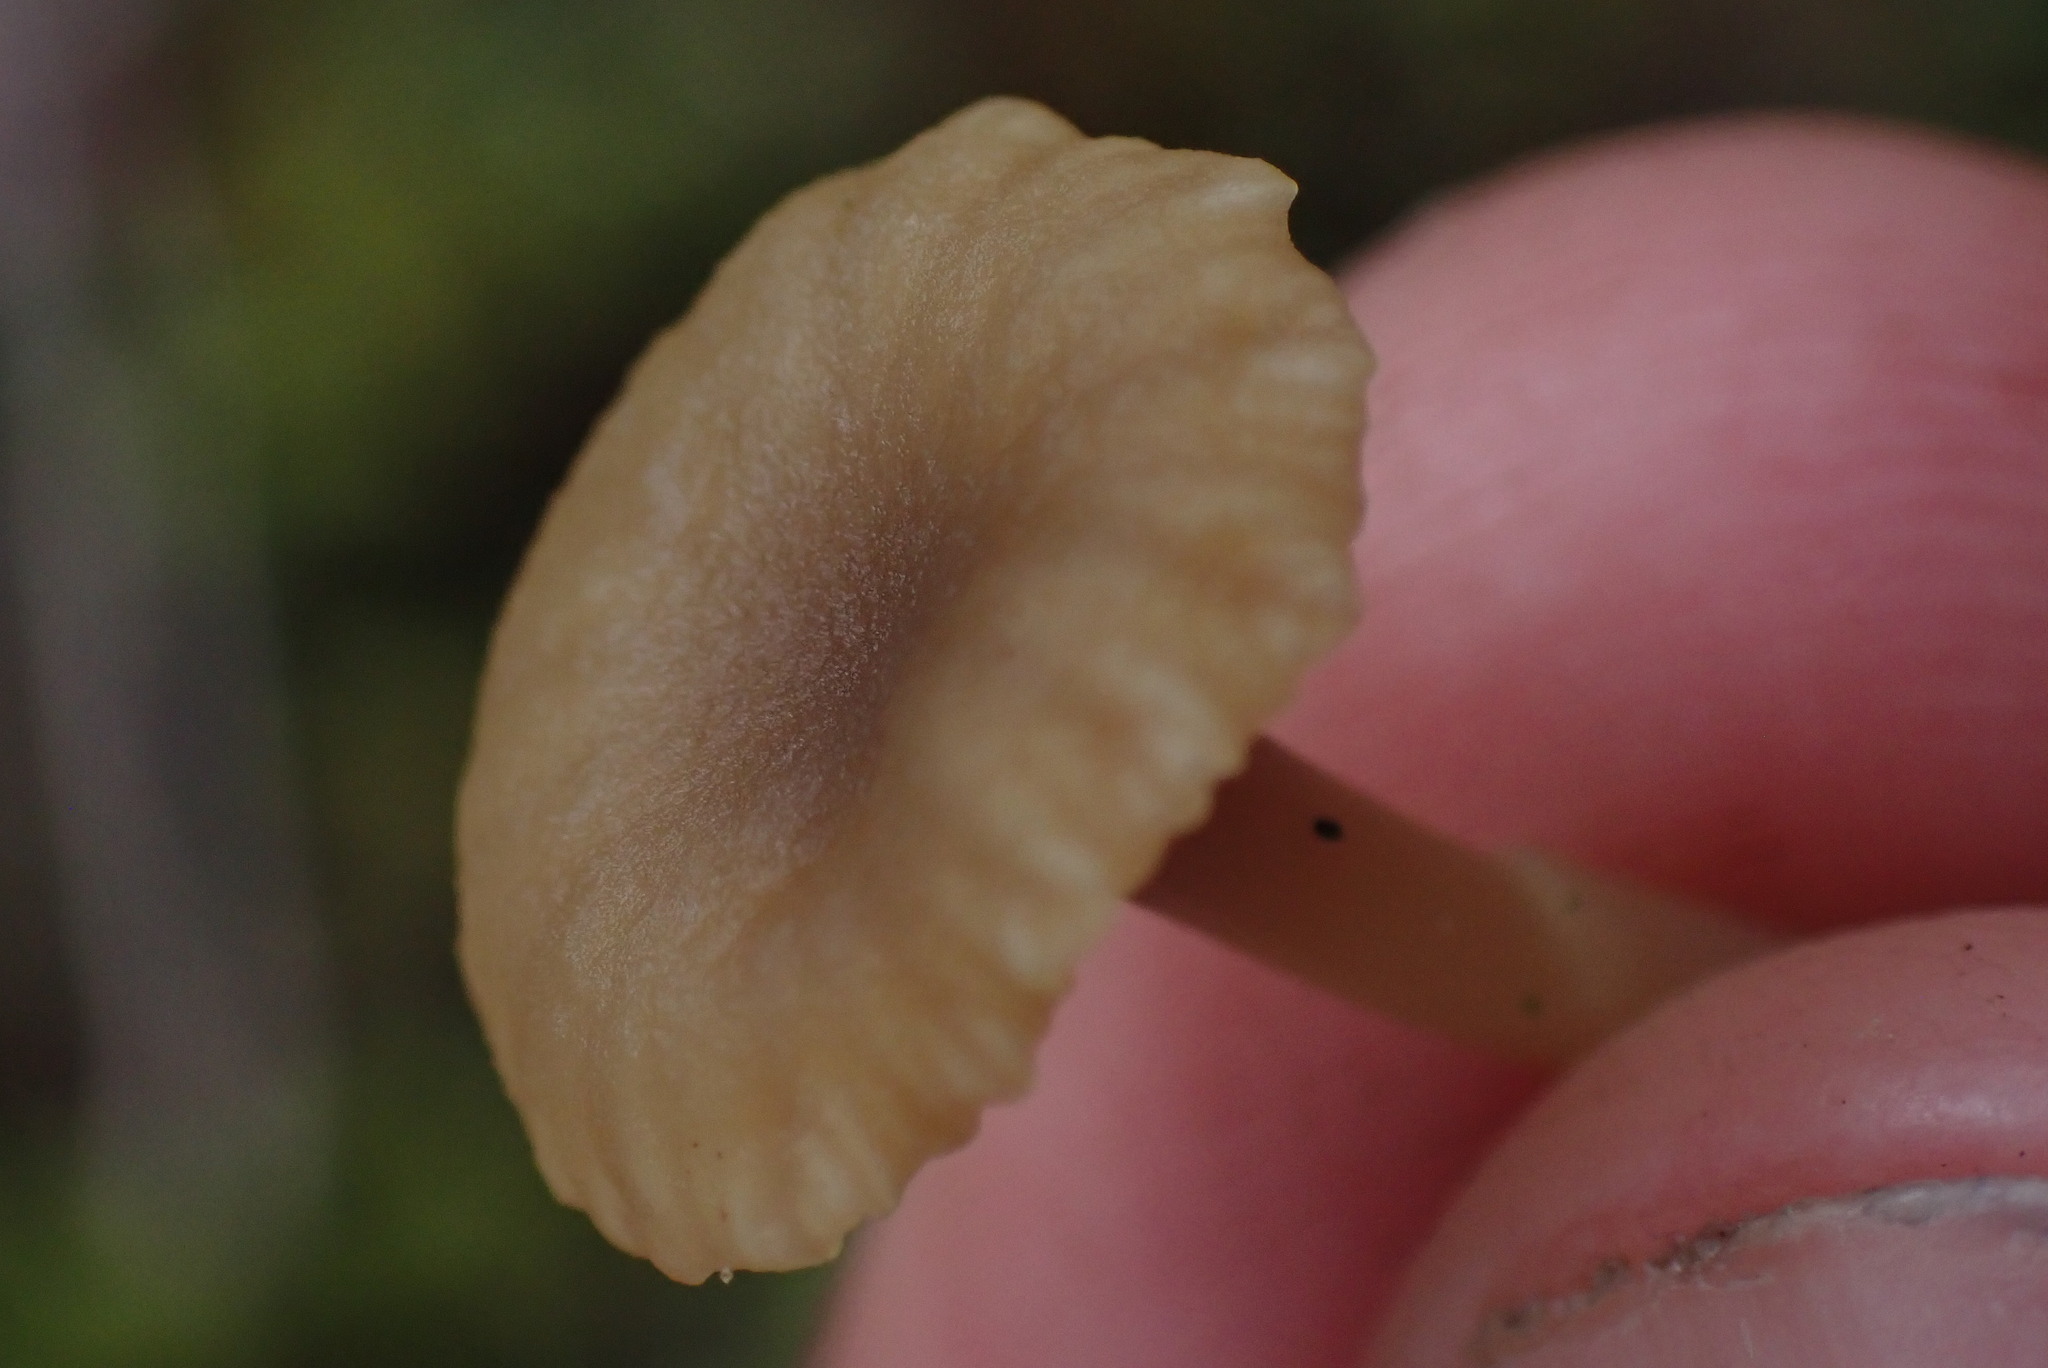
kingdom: Fungi
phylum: Basidiomycota
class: Agaricomycetes
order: Agaricales
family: Hygrophoraceae
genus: Lichenomphalia
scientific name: Lichenomphalia
